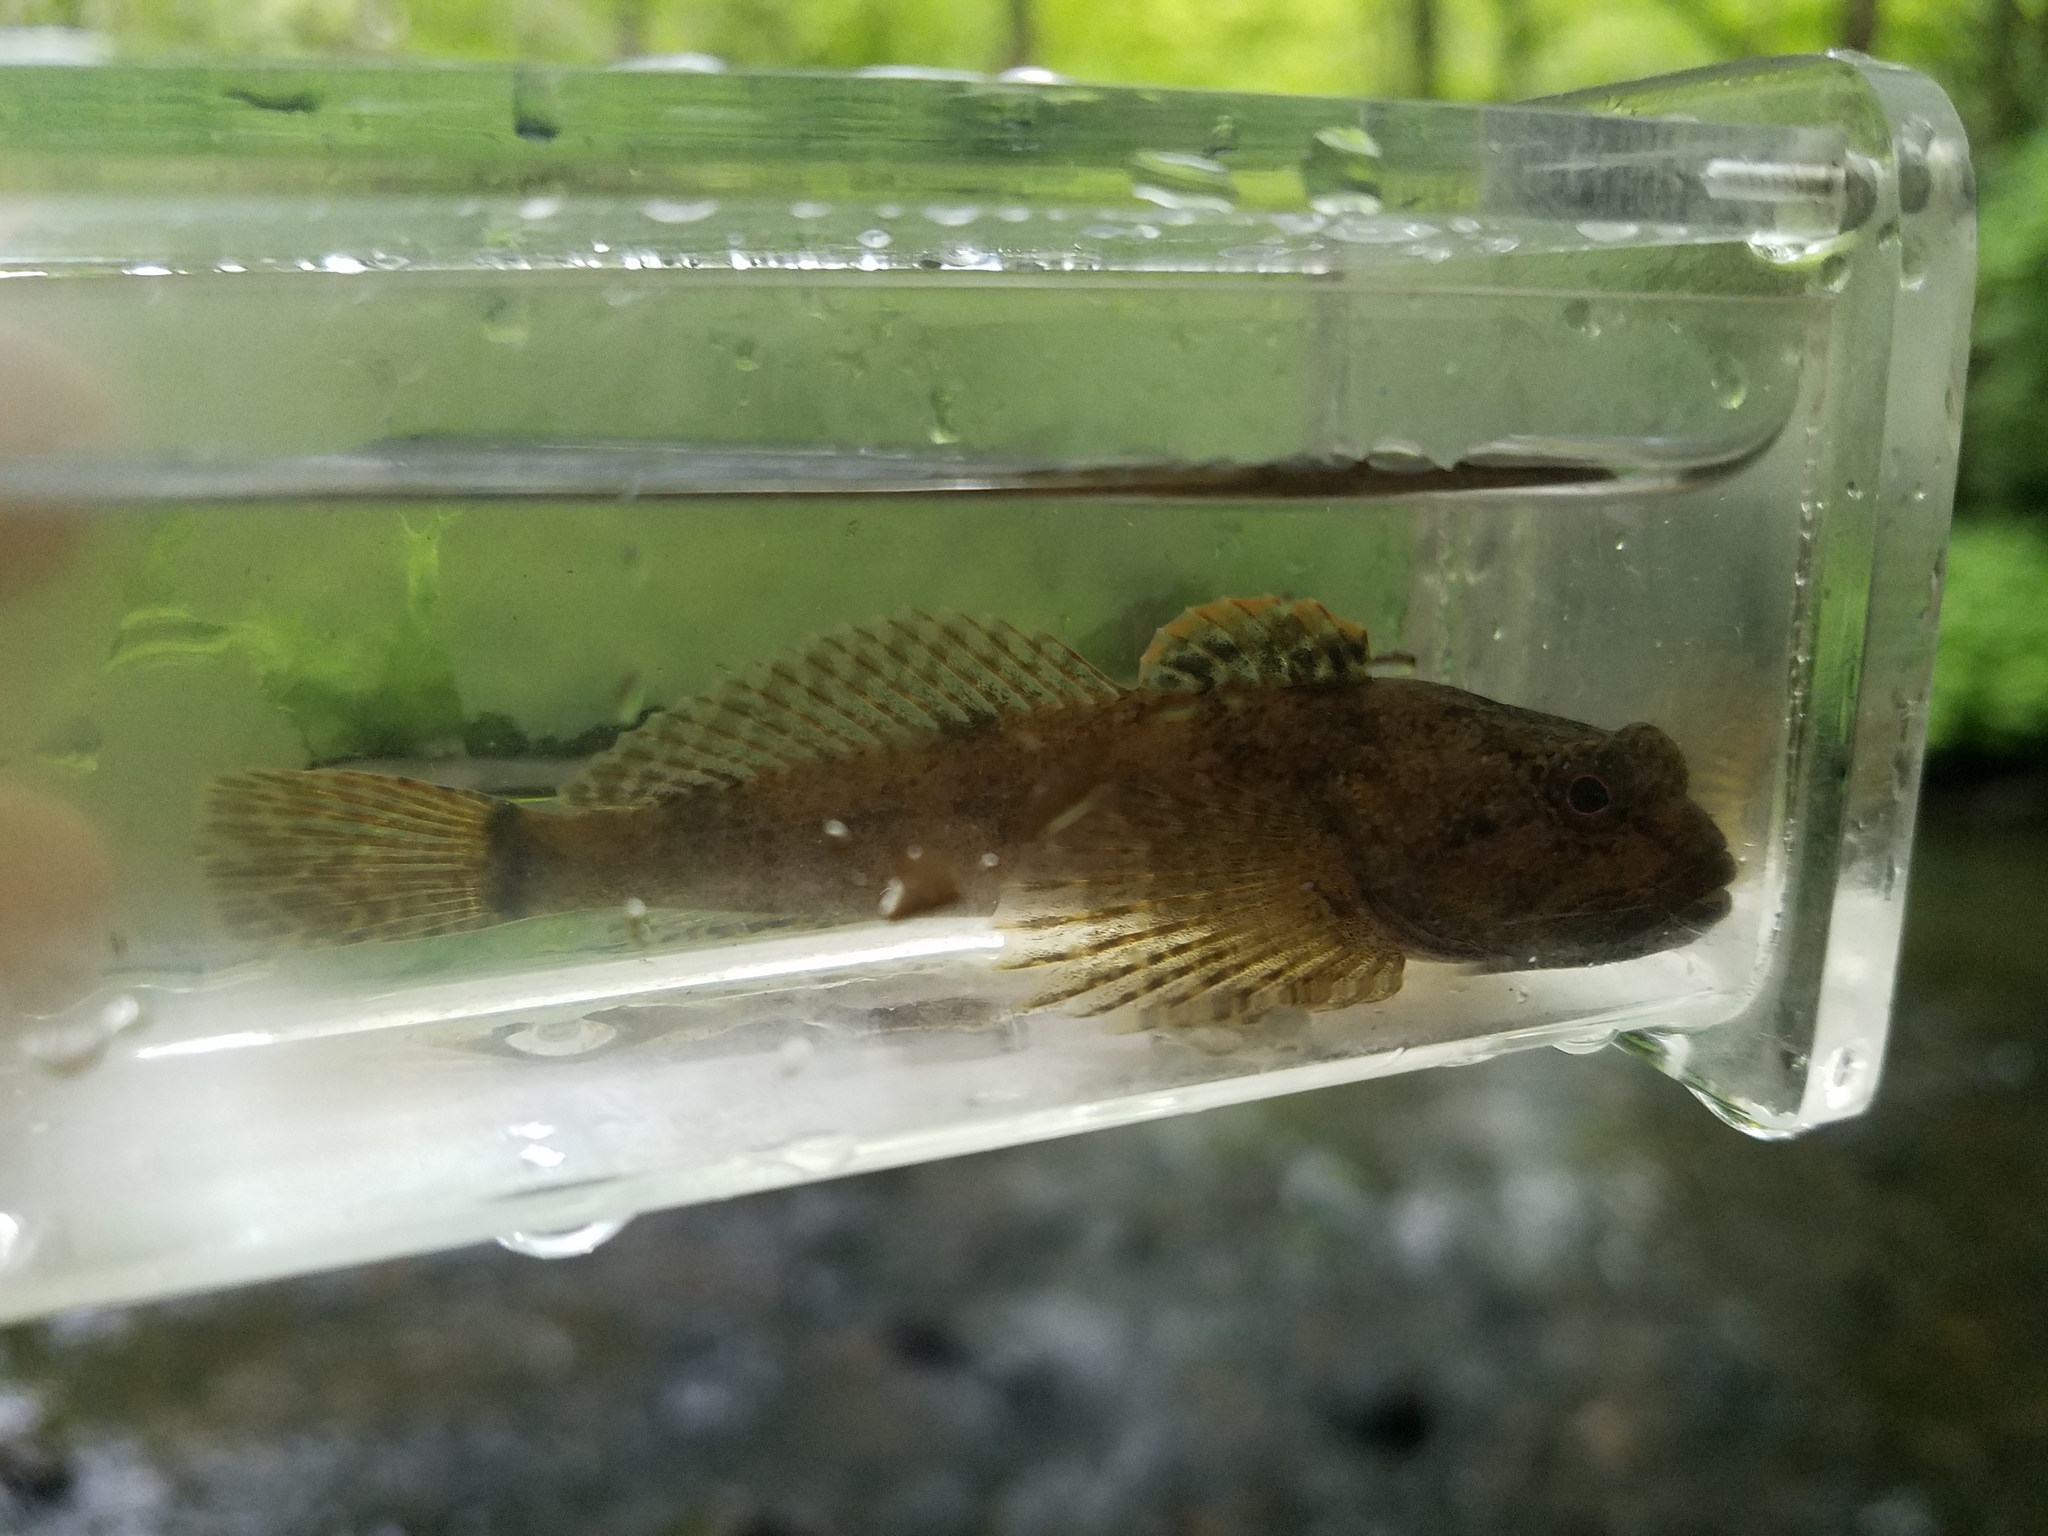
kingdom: Animalia
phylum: Chordata
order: Scorpaeniformes
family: Cottidae
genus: Cottus
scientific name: Cottus bairdii
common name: Mottled sculpin
